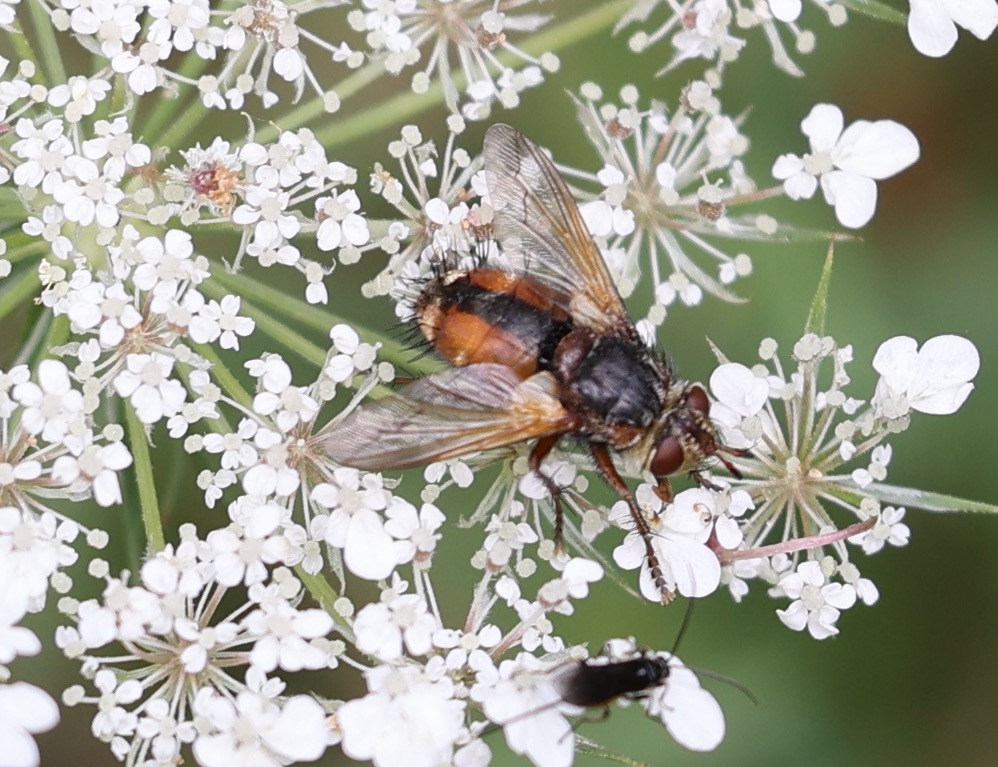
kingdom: Animalia
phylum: Arthropoda
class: Insecta
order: Diptera
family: Tachinidae
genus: Tachina
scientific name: Tachina fera
